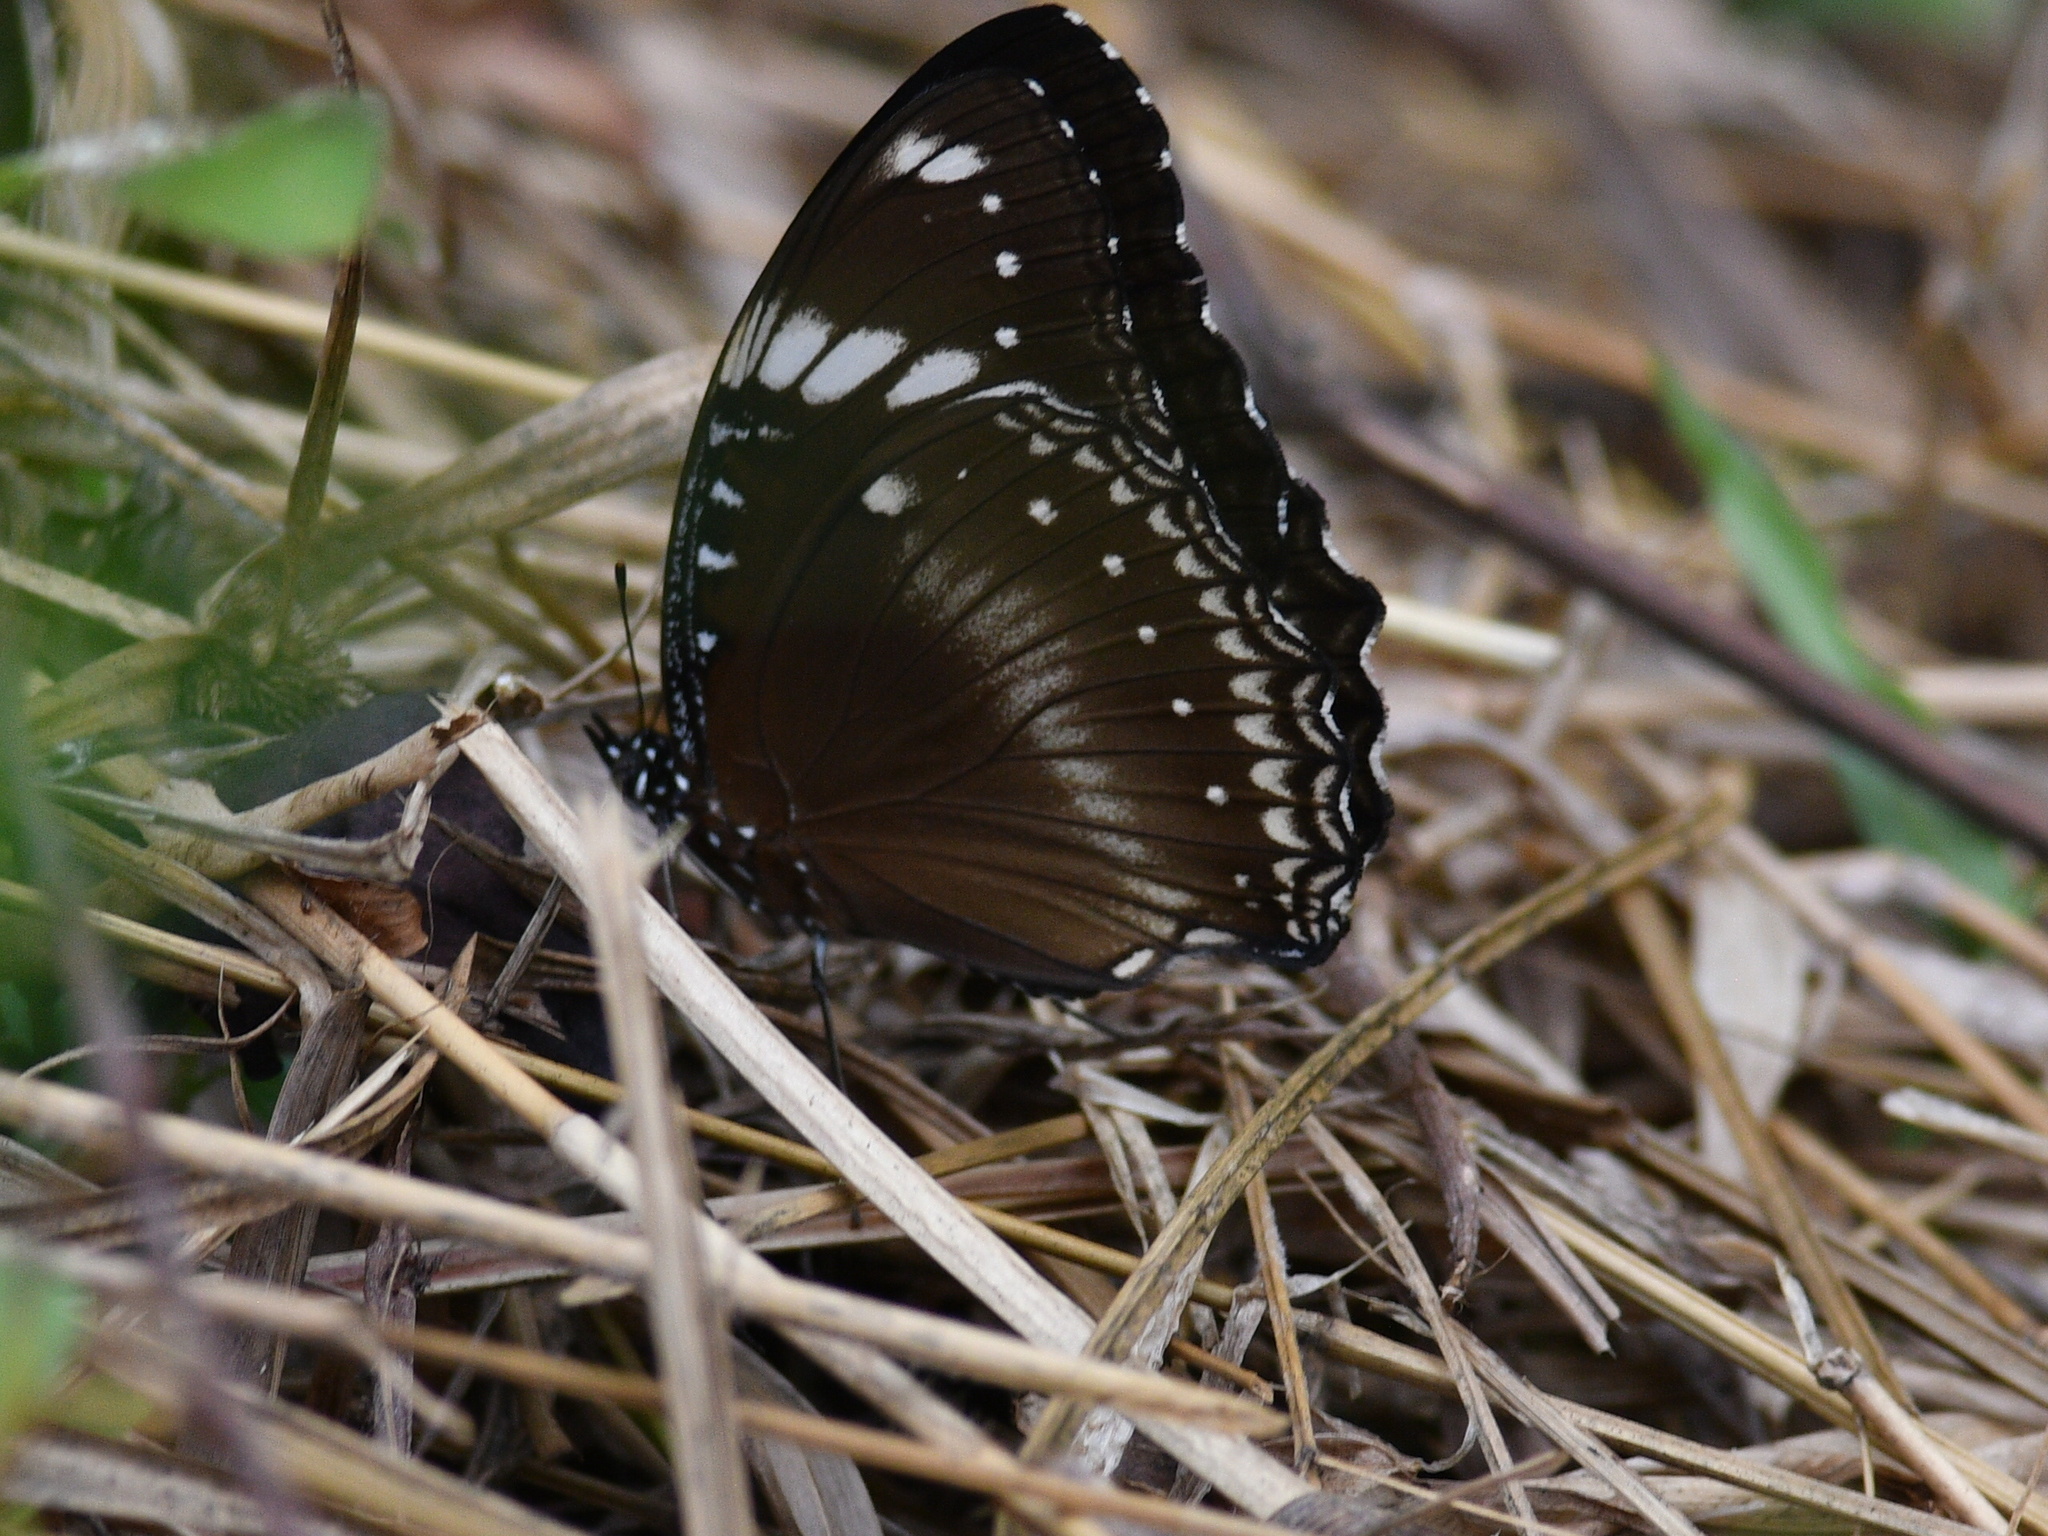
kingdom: Animalia
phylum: Arthropoda
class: Insecta
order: Lepidoptera
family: Nymphalidae
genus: Hypolimnas
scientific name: Hypolimnas bolina
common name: Great eggfly
